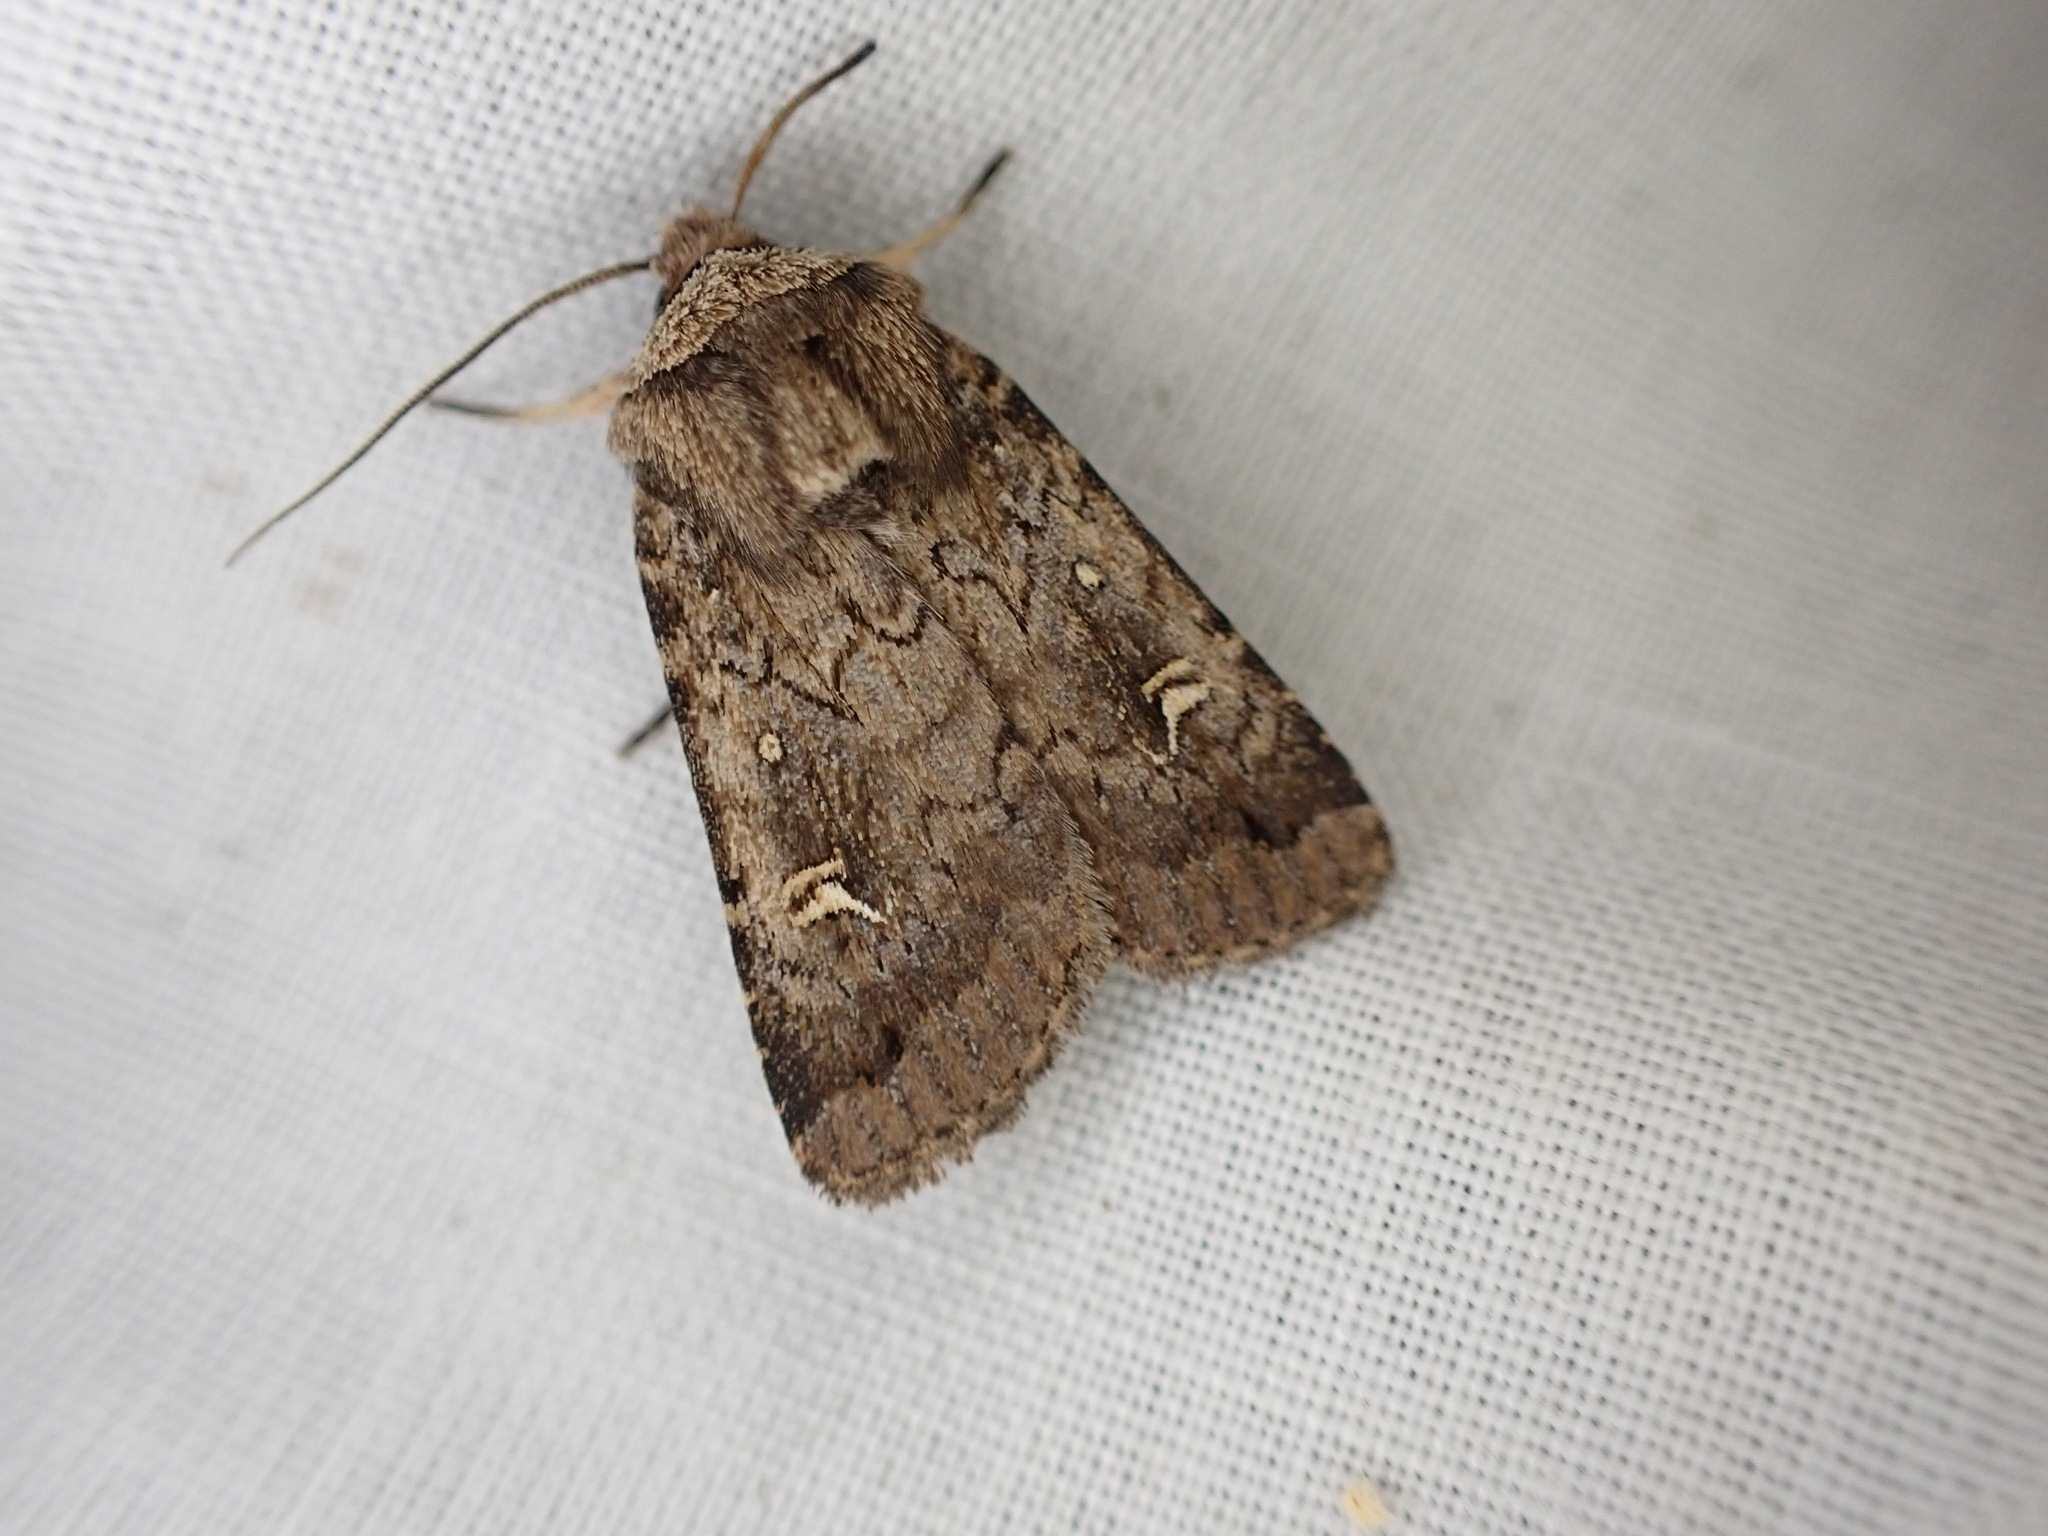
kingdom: Animalia
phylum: Arthropoda
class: Insecta
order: Lepidoptera
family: Noctuidae
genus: Proteuxoa
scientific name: Proteuxoa tetronycha
